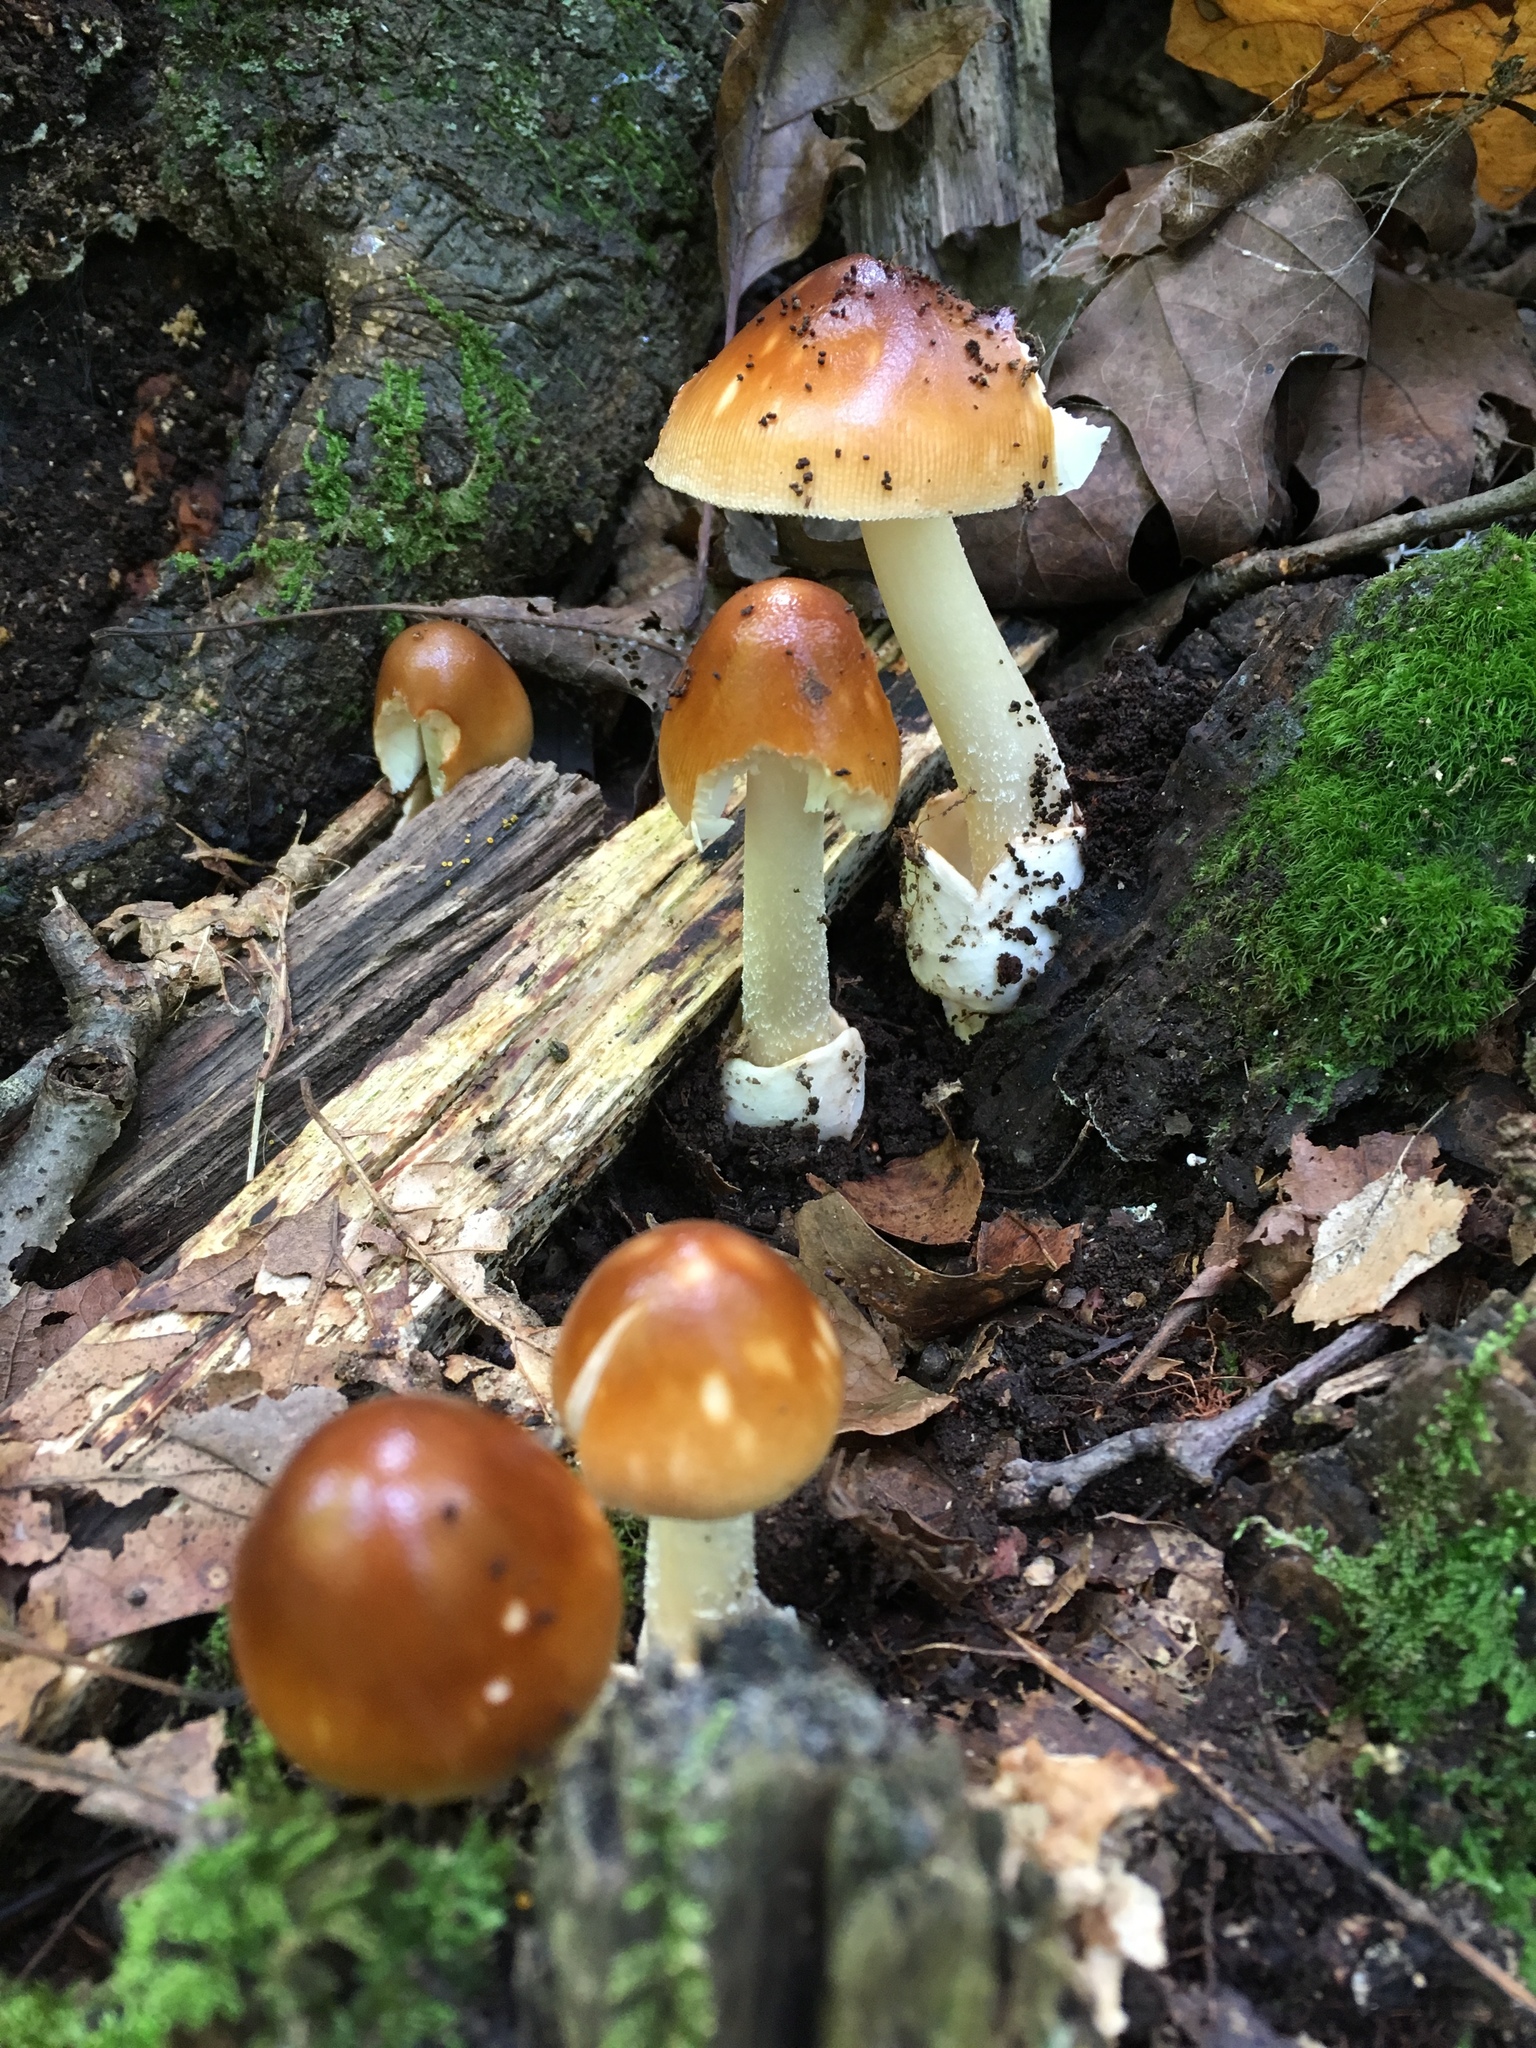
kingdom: Fungi
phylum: Basidiomycota
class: Agaricomycetes
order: Agaricales
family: Amanitaceae
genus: Amanita
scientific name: Amanita fulva
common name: Tawny grisette
